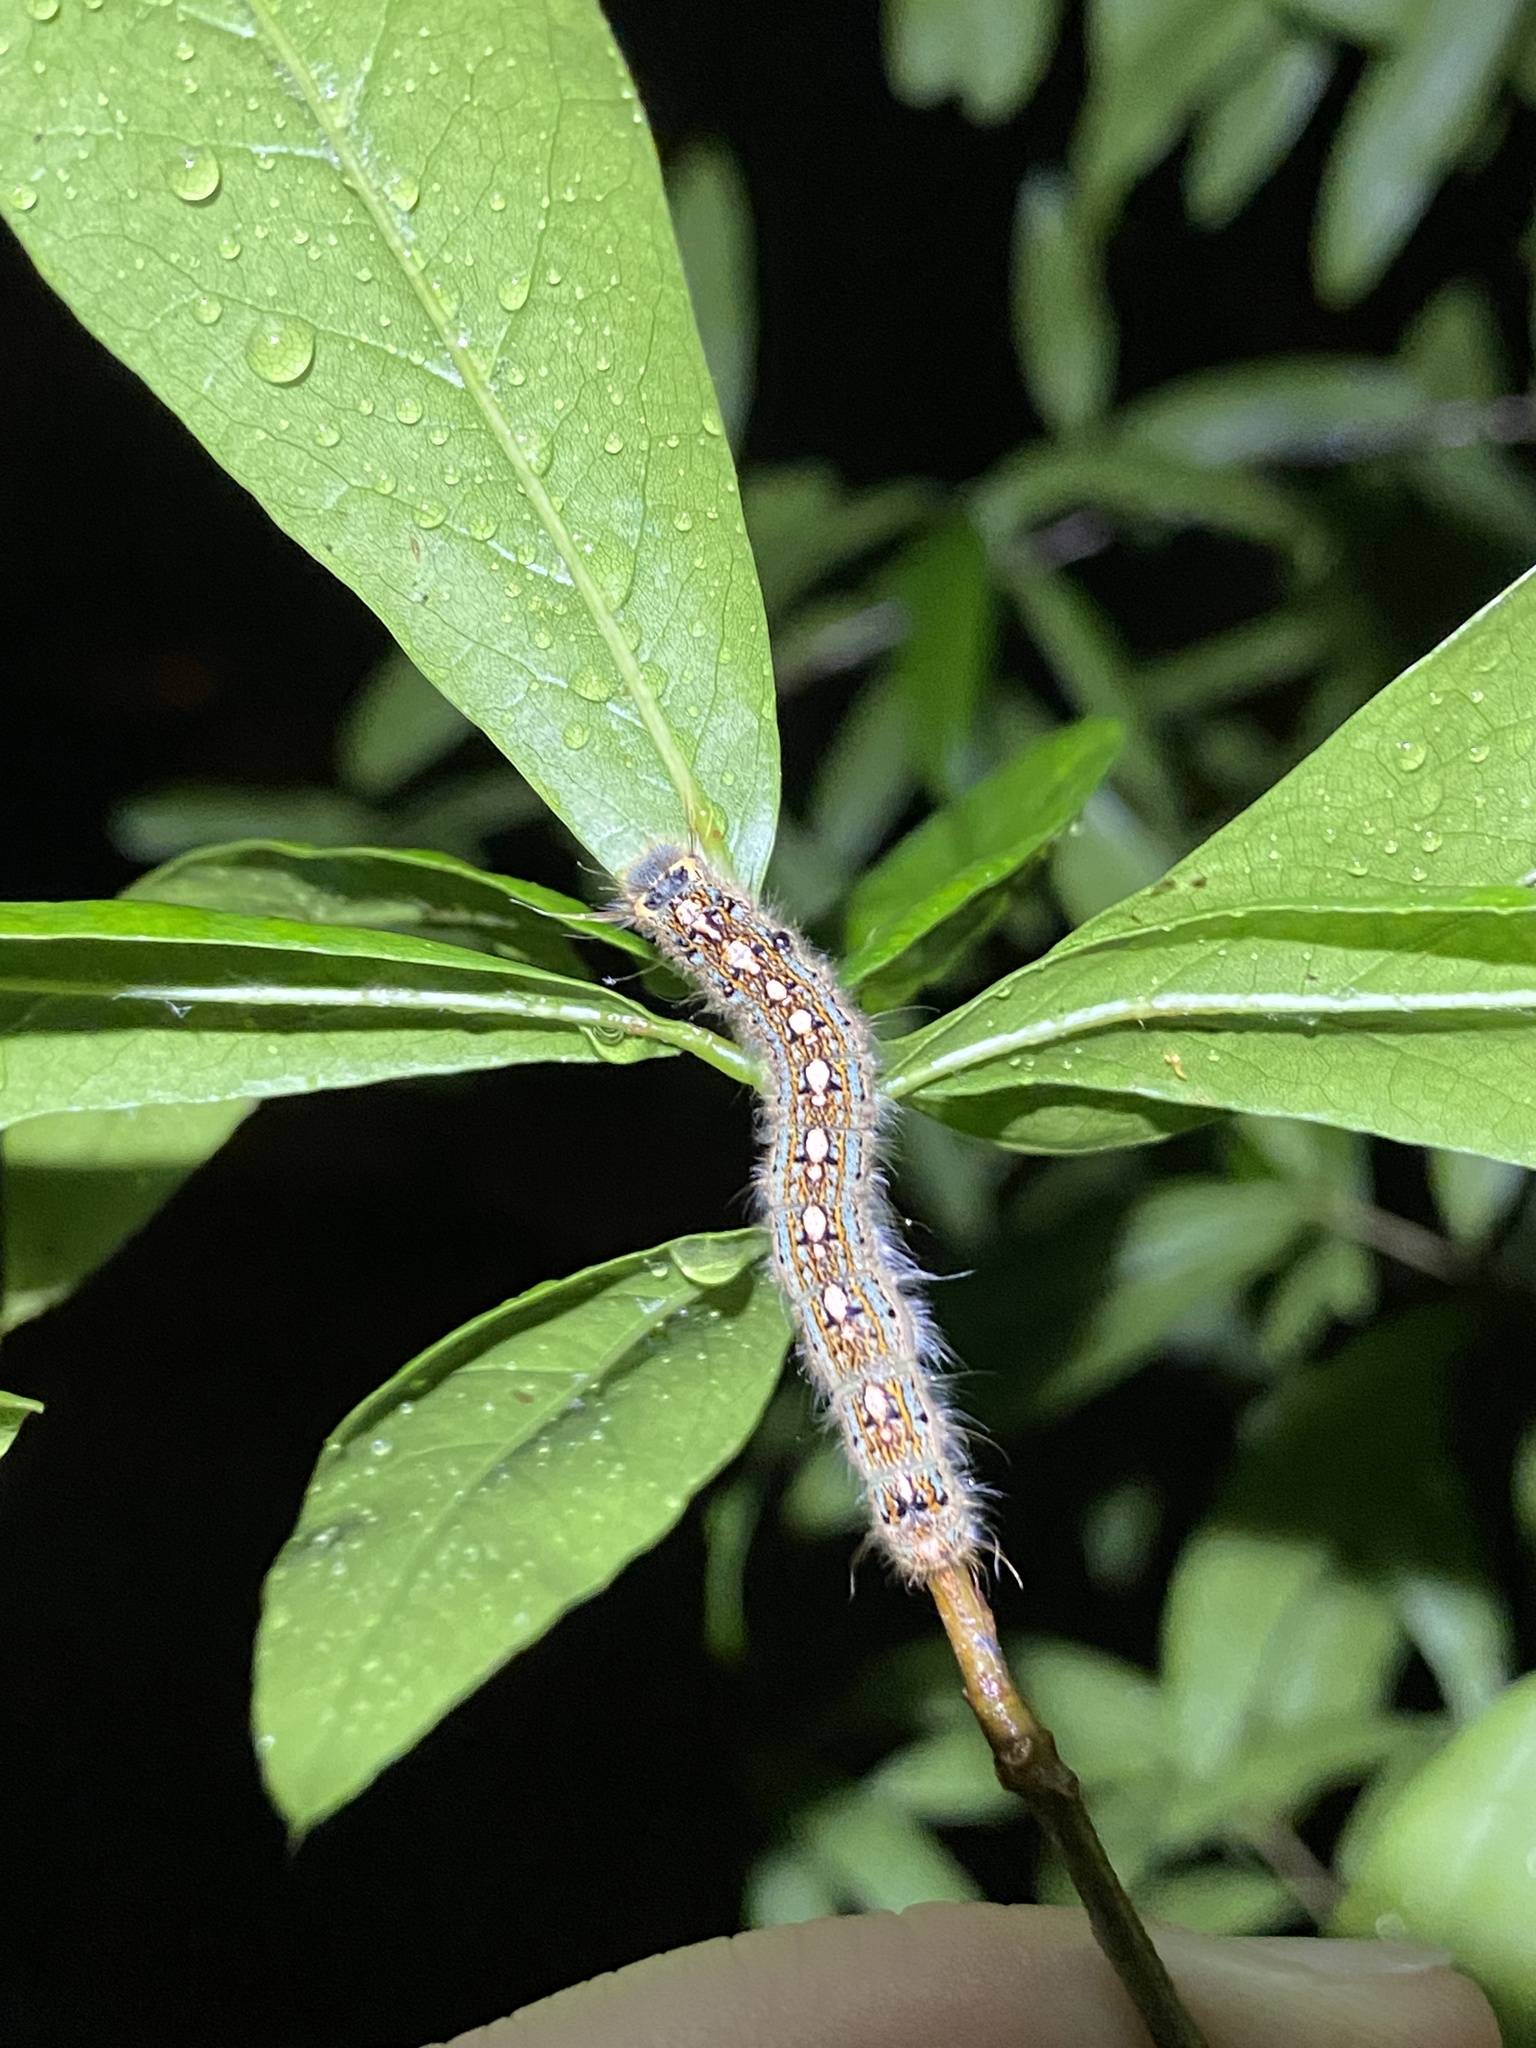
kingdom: Animalia
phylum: Arthropoda
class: Insecta
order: Lepidoptera
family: Lasiocampidae
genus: Malacosoma
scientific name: Malacosoma disstria
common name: Forest tent caterpillar
